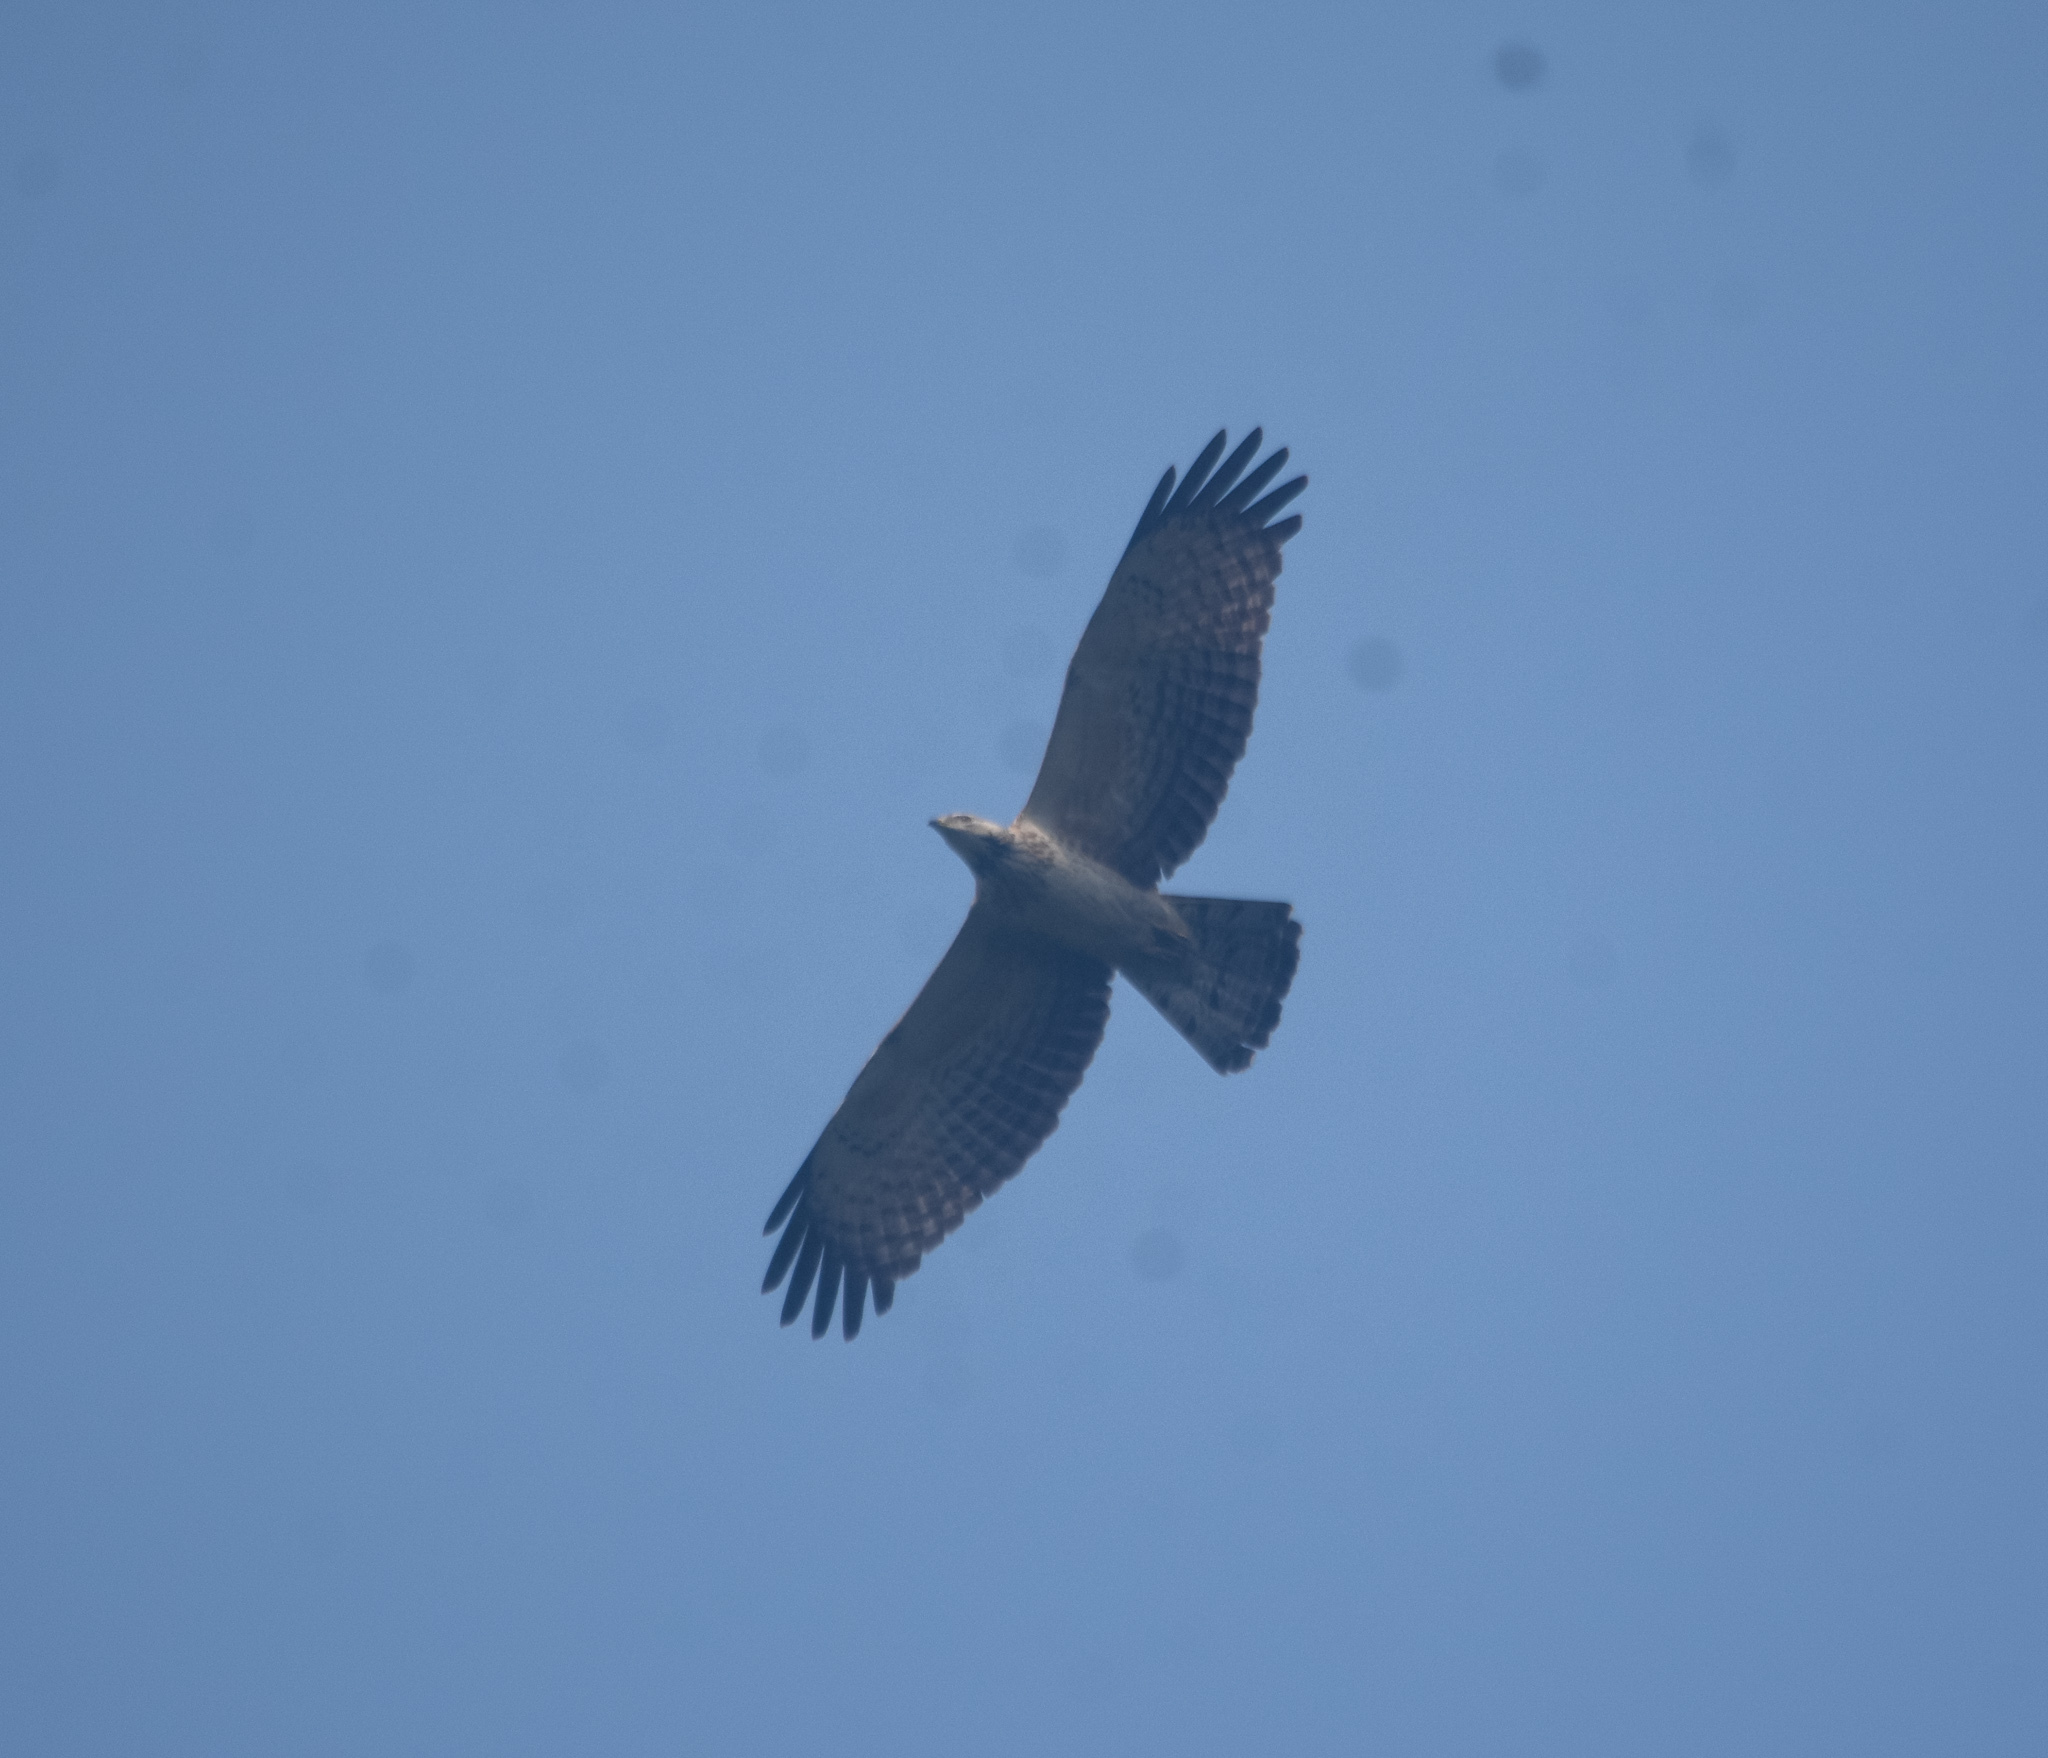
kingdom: Animalia
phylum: Chordata
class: Aves
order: Accipitriformes
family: Accipitridae
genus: Pernis
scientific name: Pernis ptilorhynchus
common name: Crested honey buzzard
